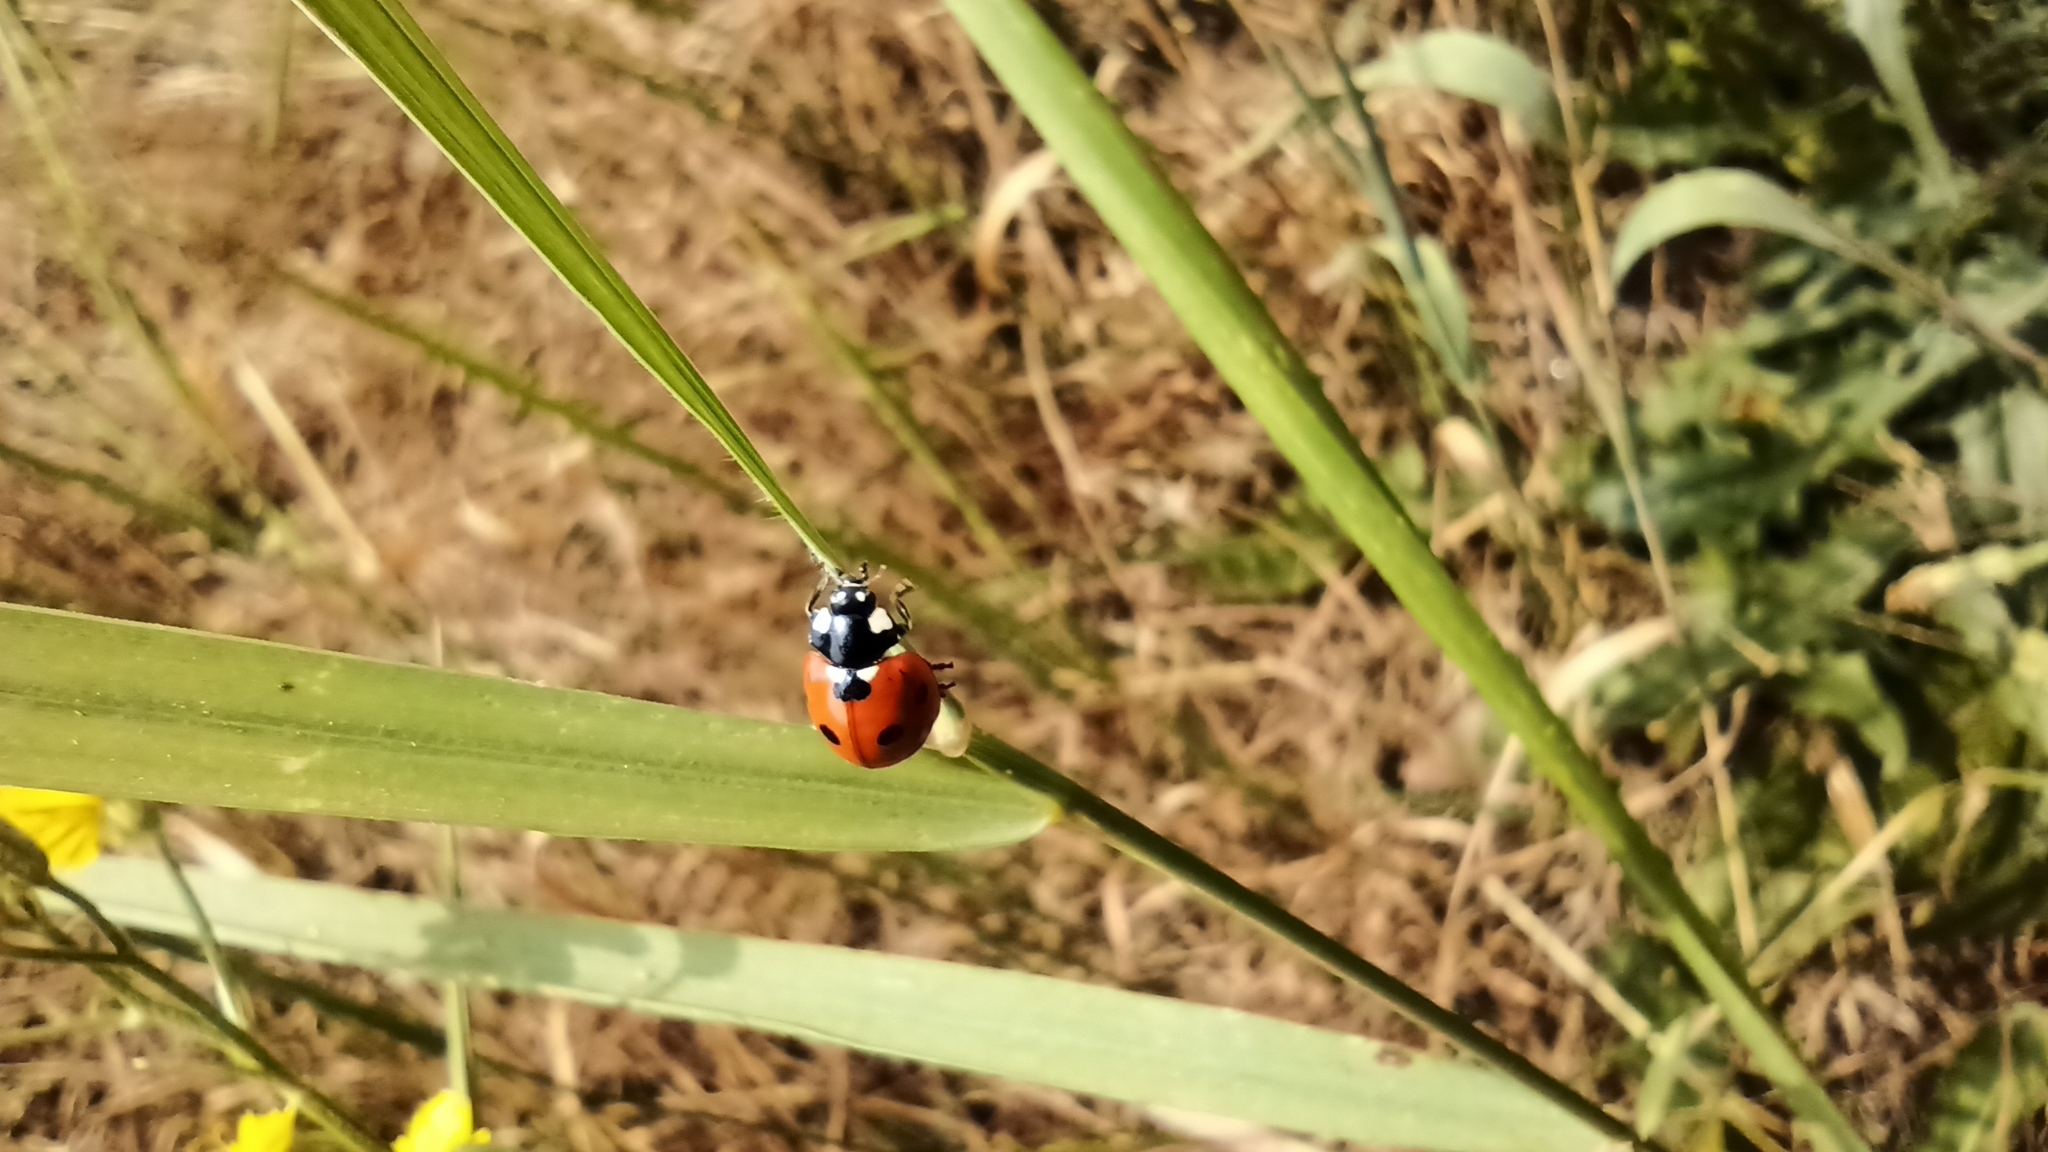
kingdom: Animalia
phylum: Arthropoda
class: Insecta
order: Coleoptera
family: Coccinellidae
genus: Coccinella
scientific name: Coccinella septempunctata
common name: Sevenspotted lady beetle
